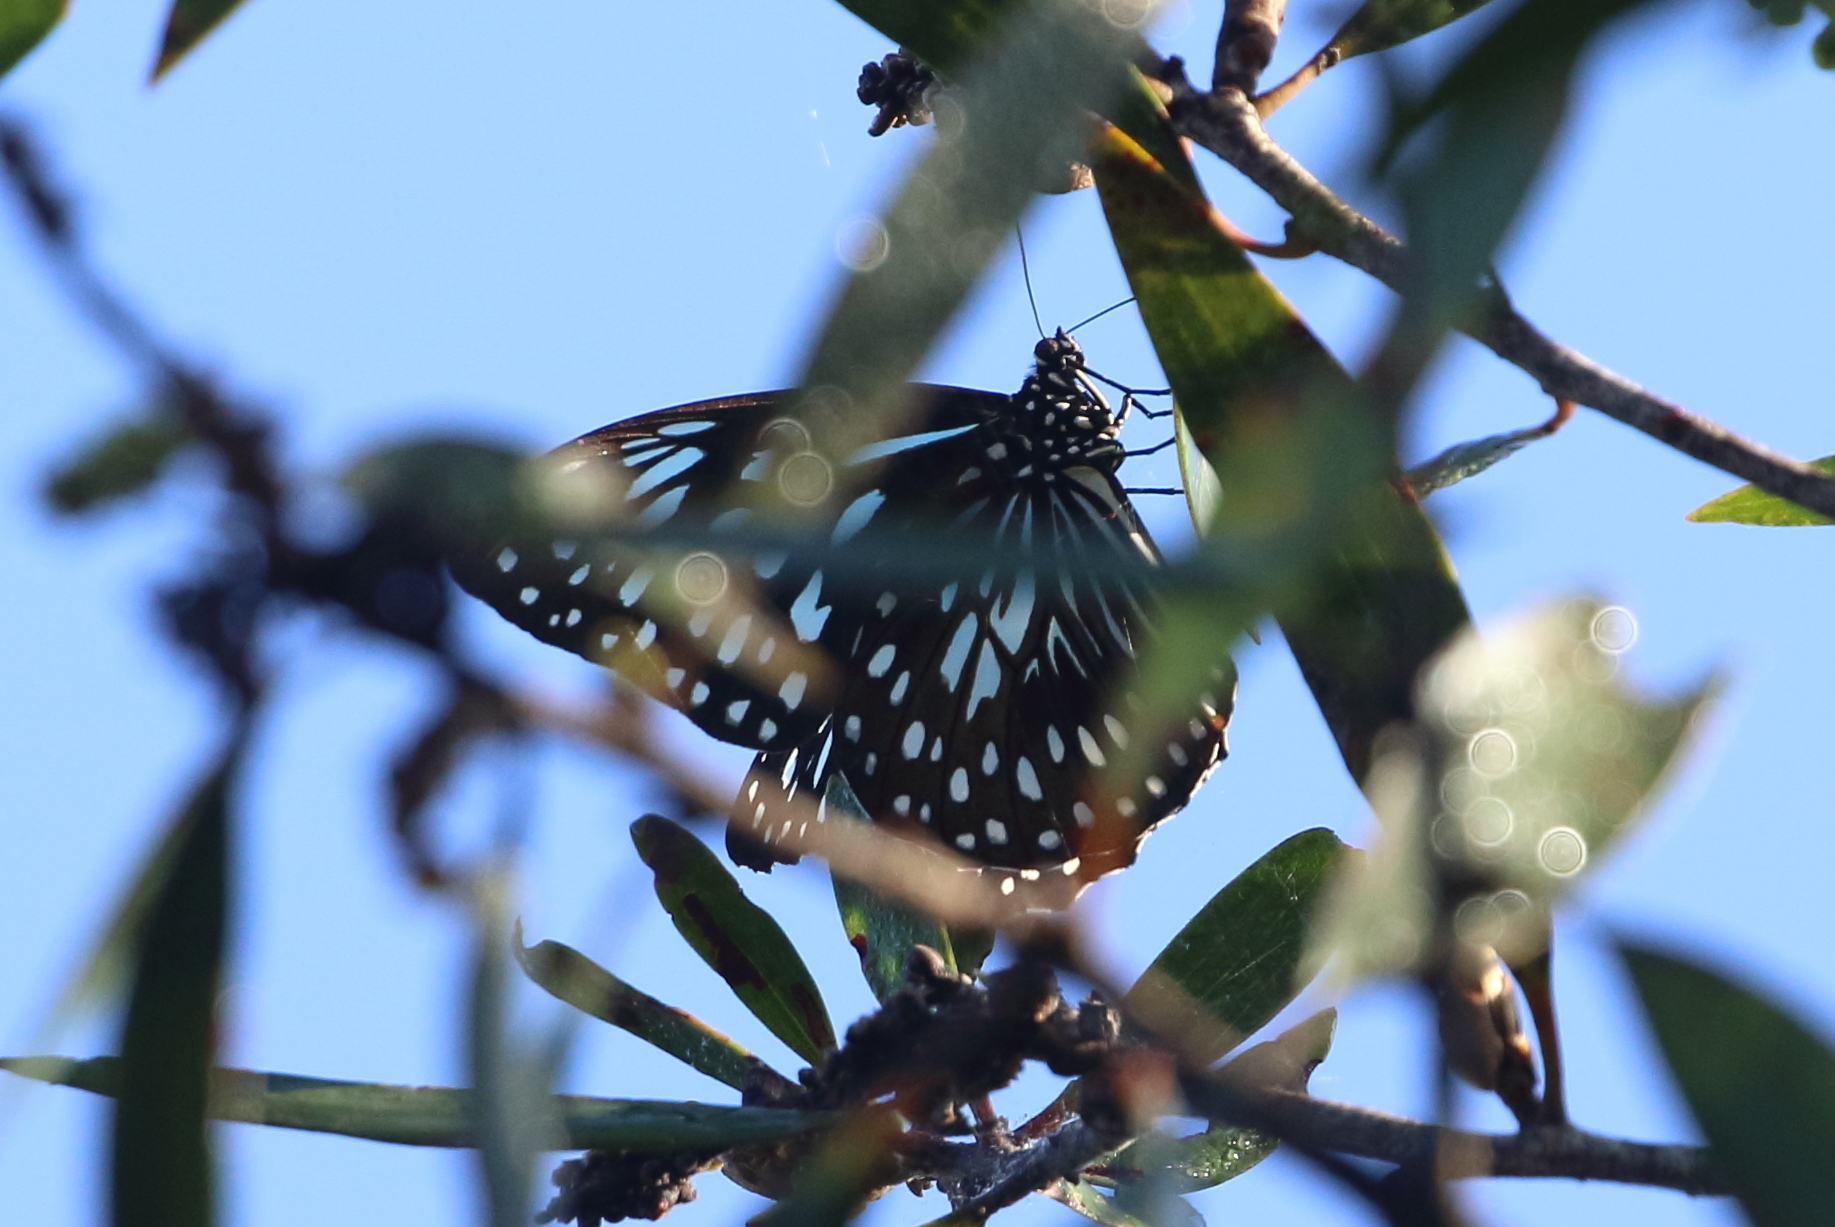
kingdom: Animalia
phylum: Arthropoda
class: Insecta
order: Lepidoptera
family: Nymphalidae
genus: Tirumala
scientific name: Tirumala hamata
